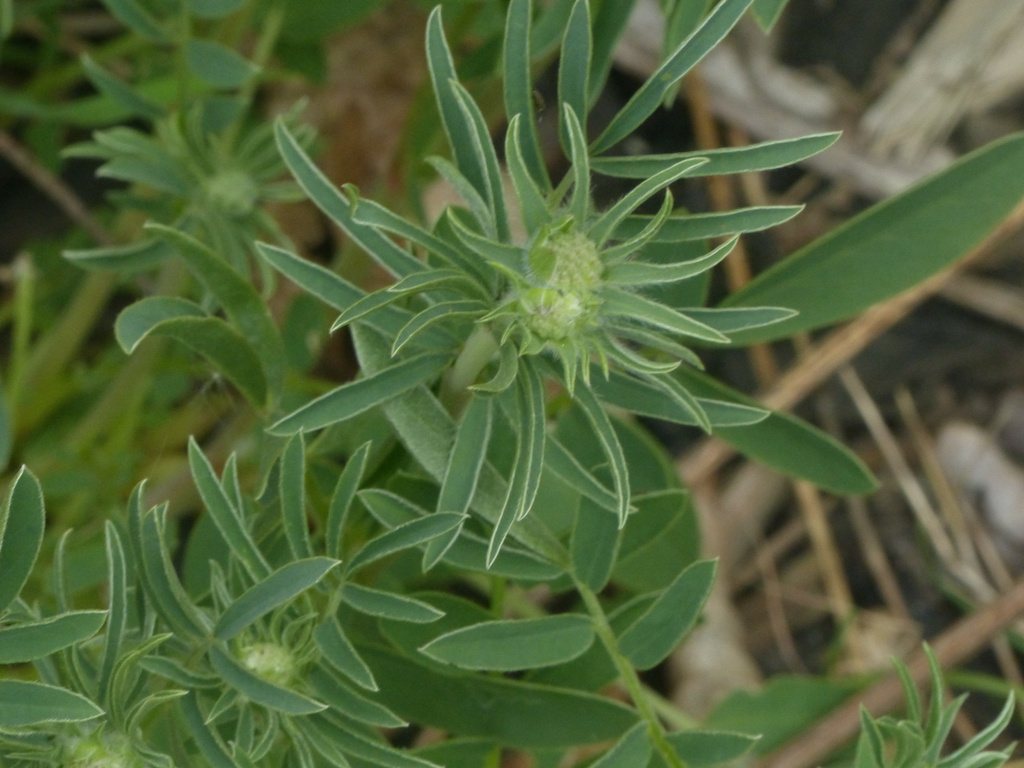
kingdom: Plantae
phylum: Tracheophyta
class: Magnoliopsida
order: Fabales
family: Fabaceae
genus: Anthyllis
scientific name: Anthyllis vulneraria
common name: Kidney vetch
